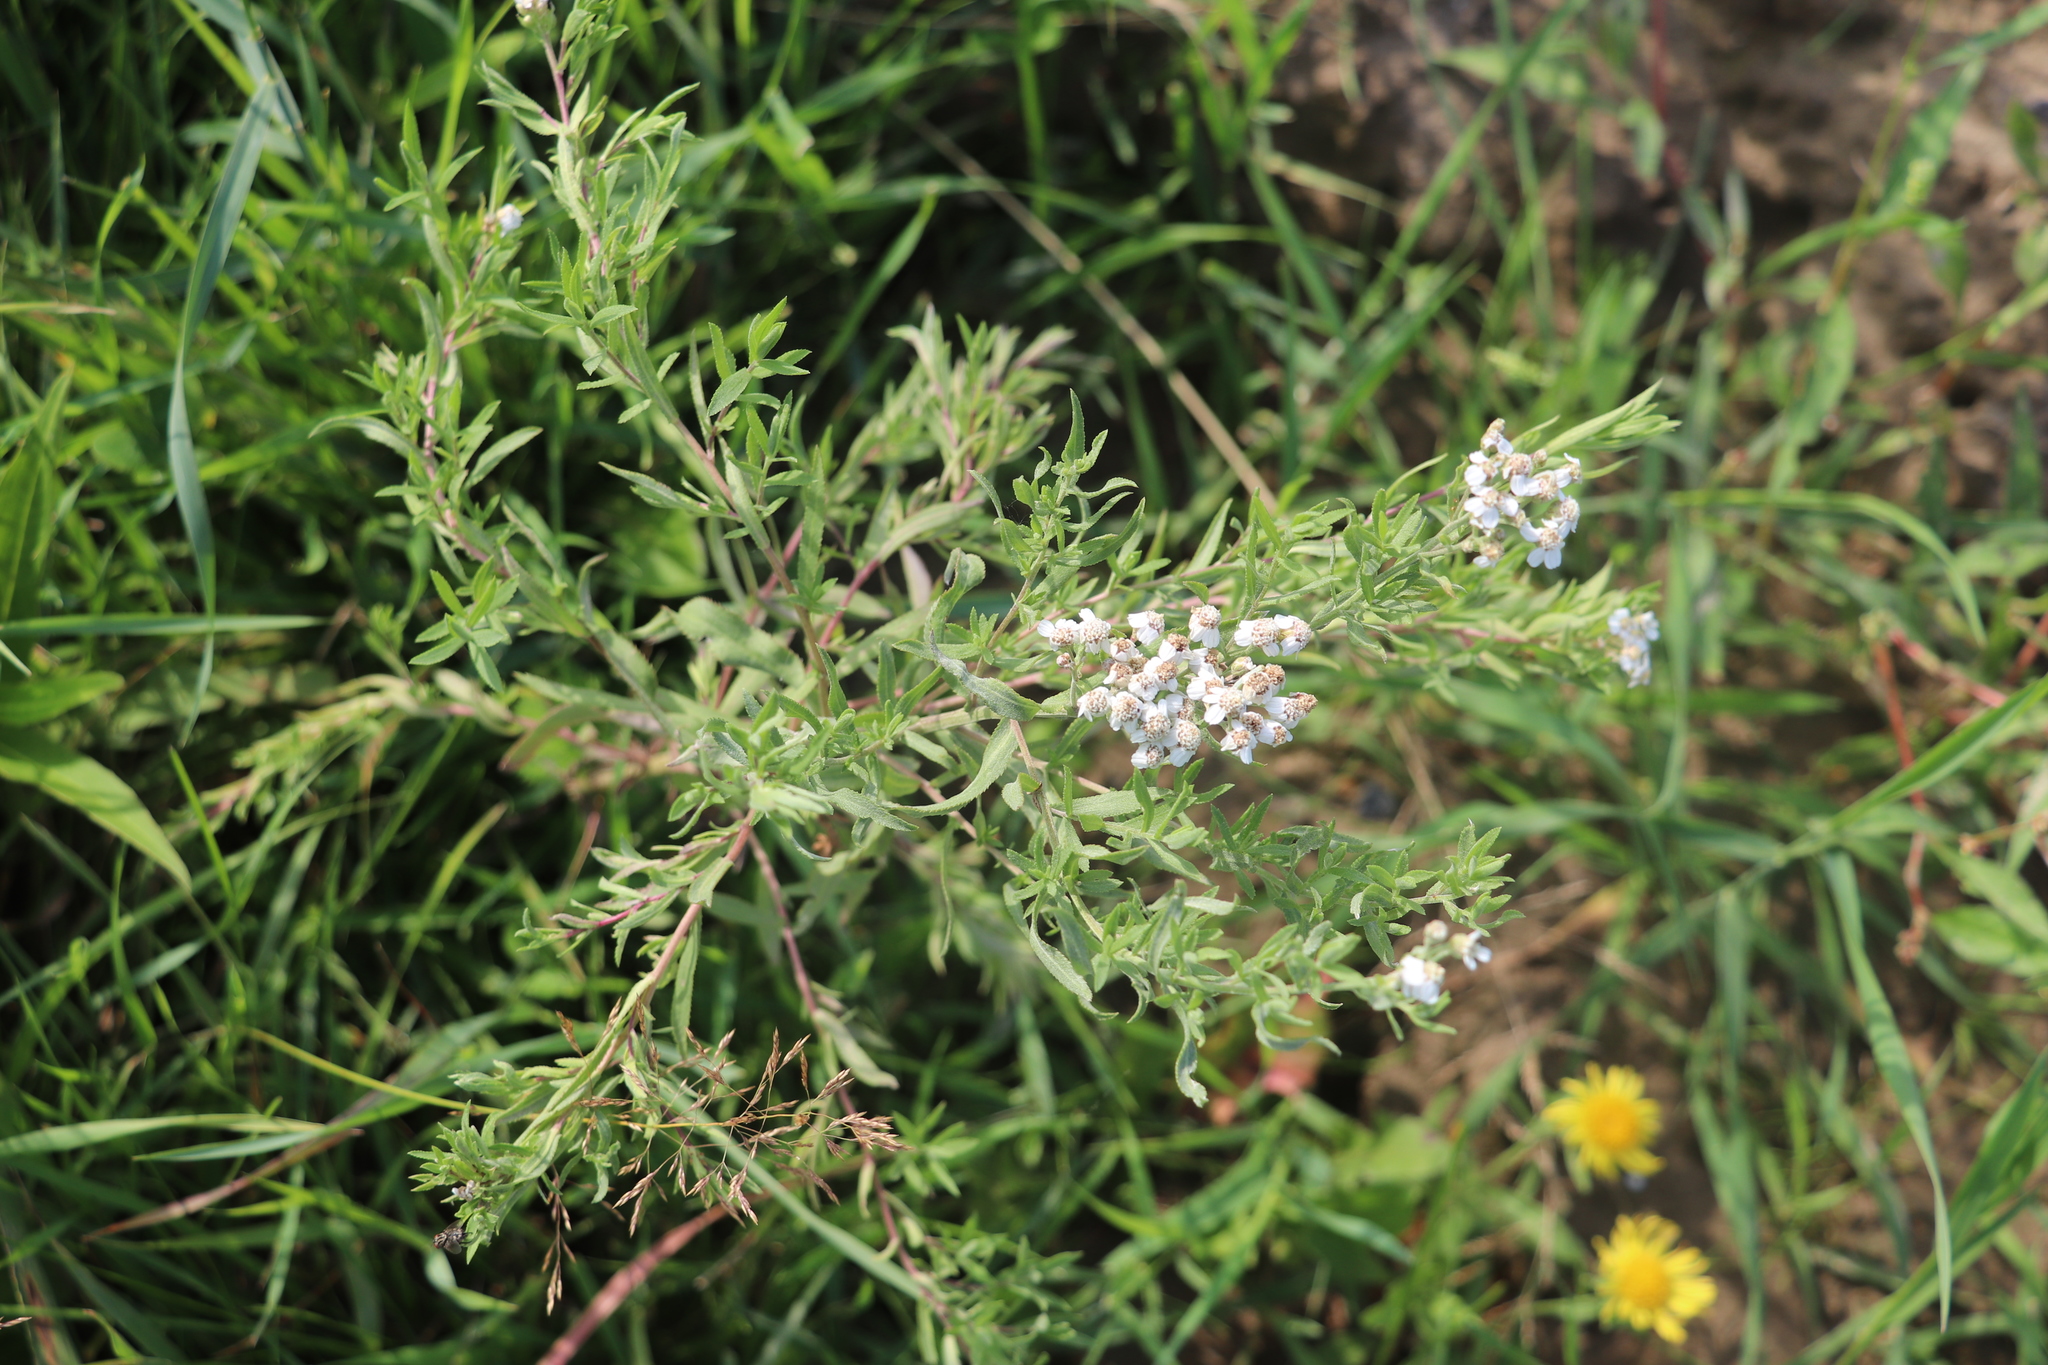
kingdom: Plantae
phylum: Tracheophyta
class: Magnoliopsida
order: Asterales
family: Asteraceae
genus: Achillea
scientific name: Achillea salicifolia
